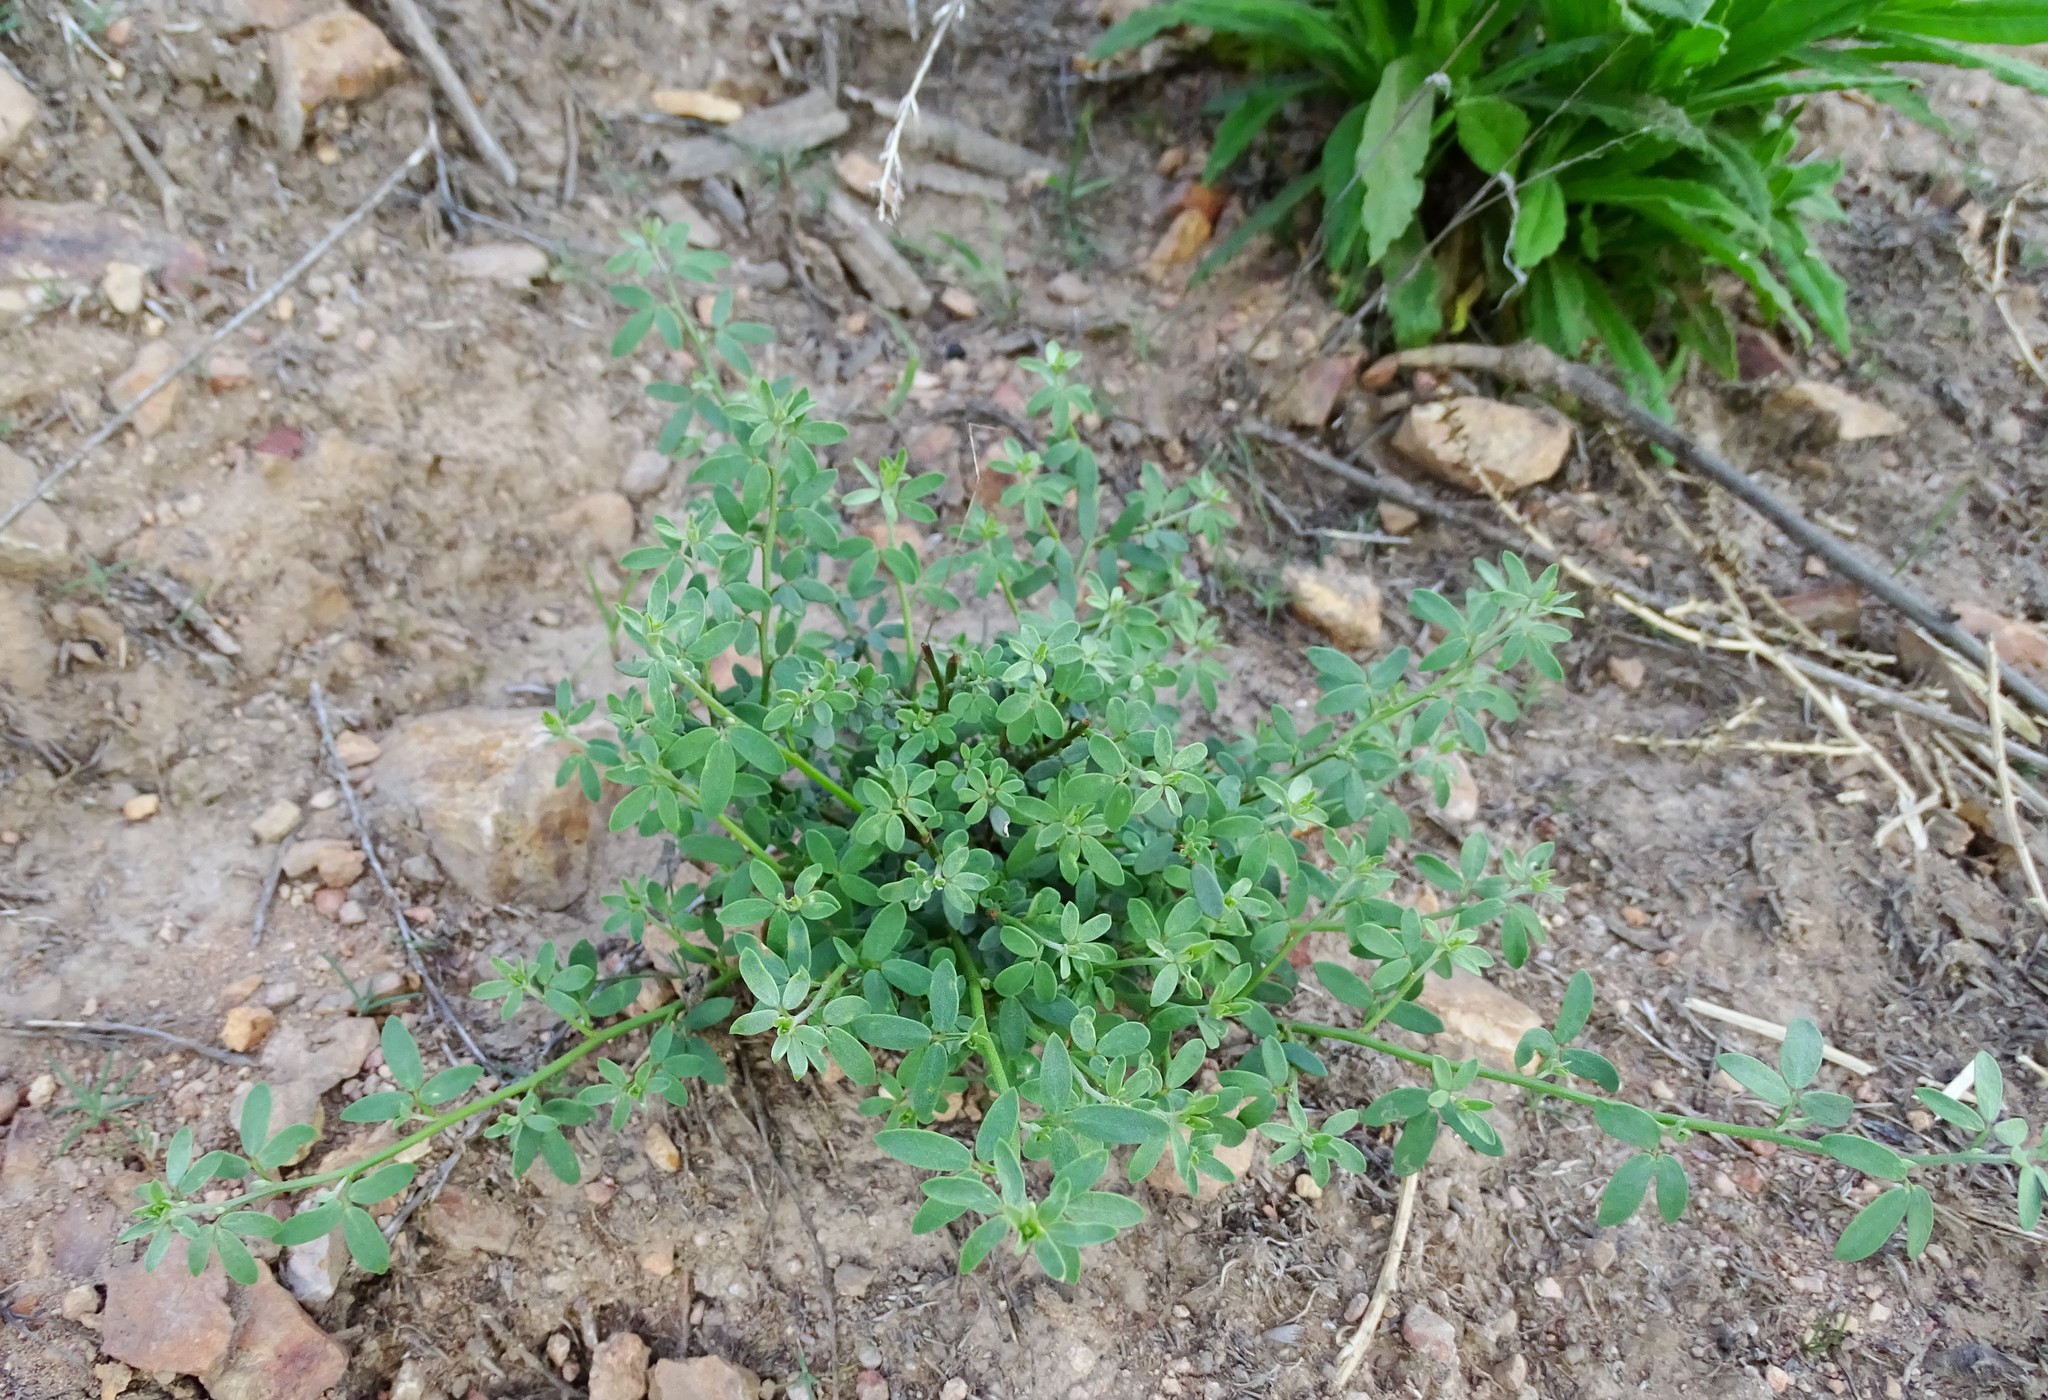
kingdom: Plantae
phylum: Tracheophyta
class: Magnoliopsida
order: Fabales
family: Fabaceae
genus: Acmispon
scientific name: Acmispon glaber
